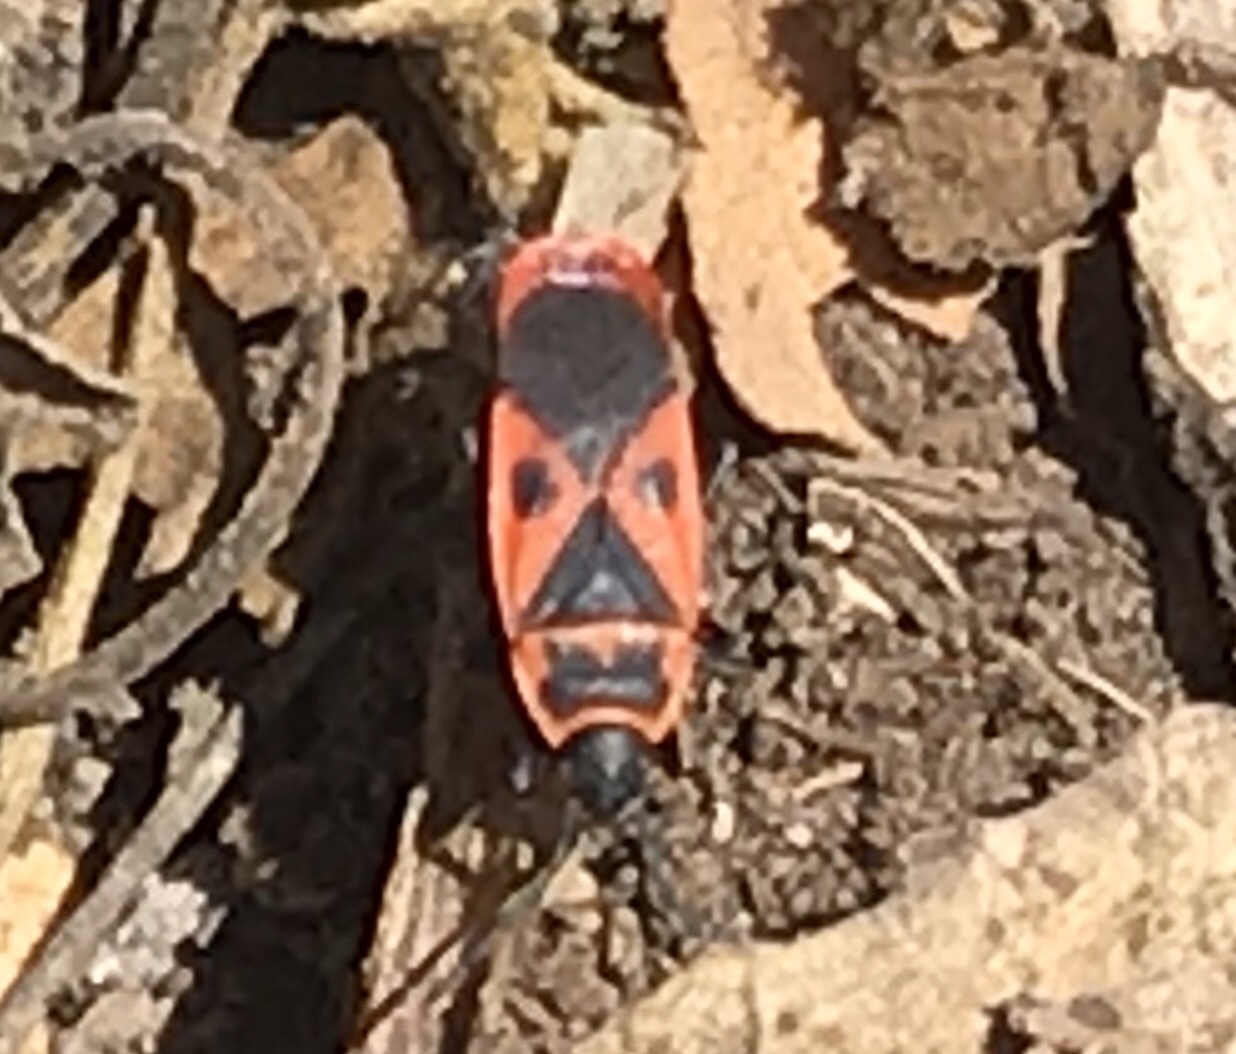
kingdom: Animalia
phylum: Arthropoda
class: Insecta
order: Hemiptera
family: Pyrrhocoridae
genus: Scantius
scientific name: Scantius aegyptius
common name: Red bug
